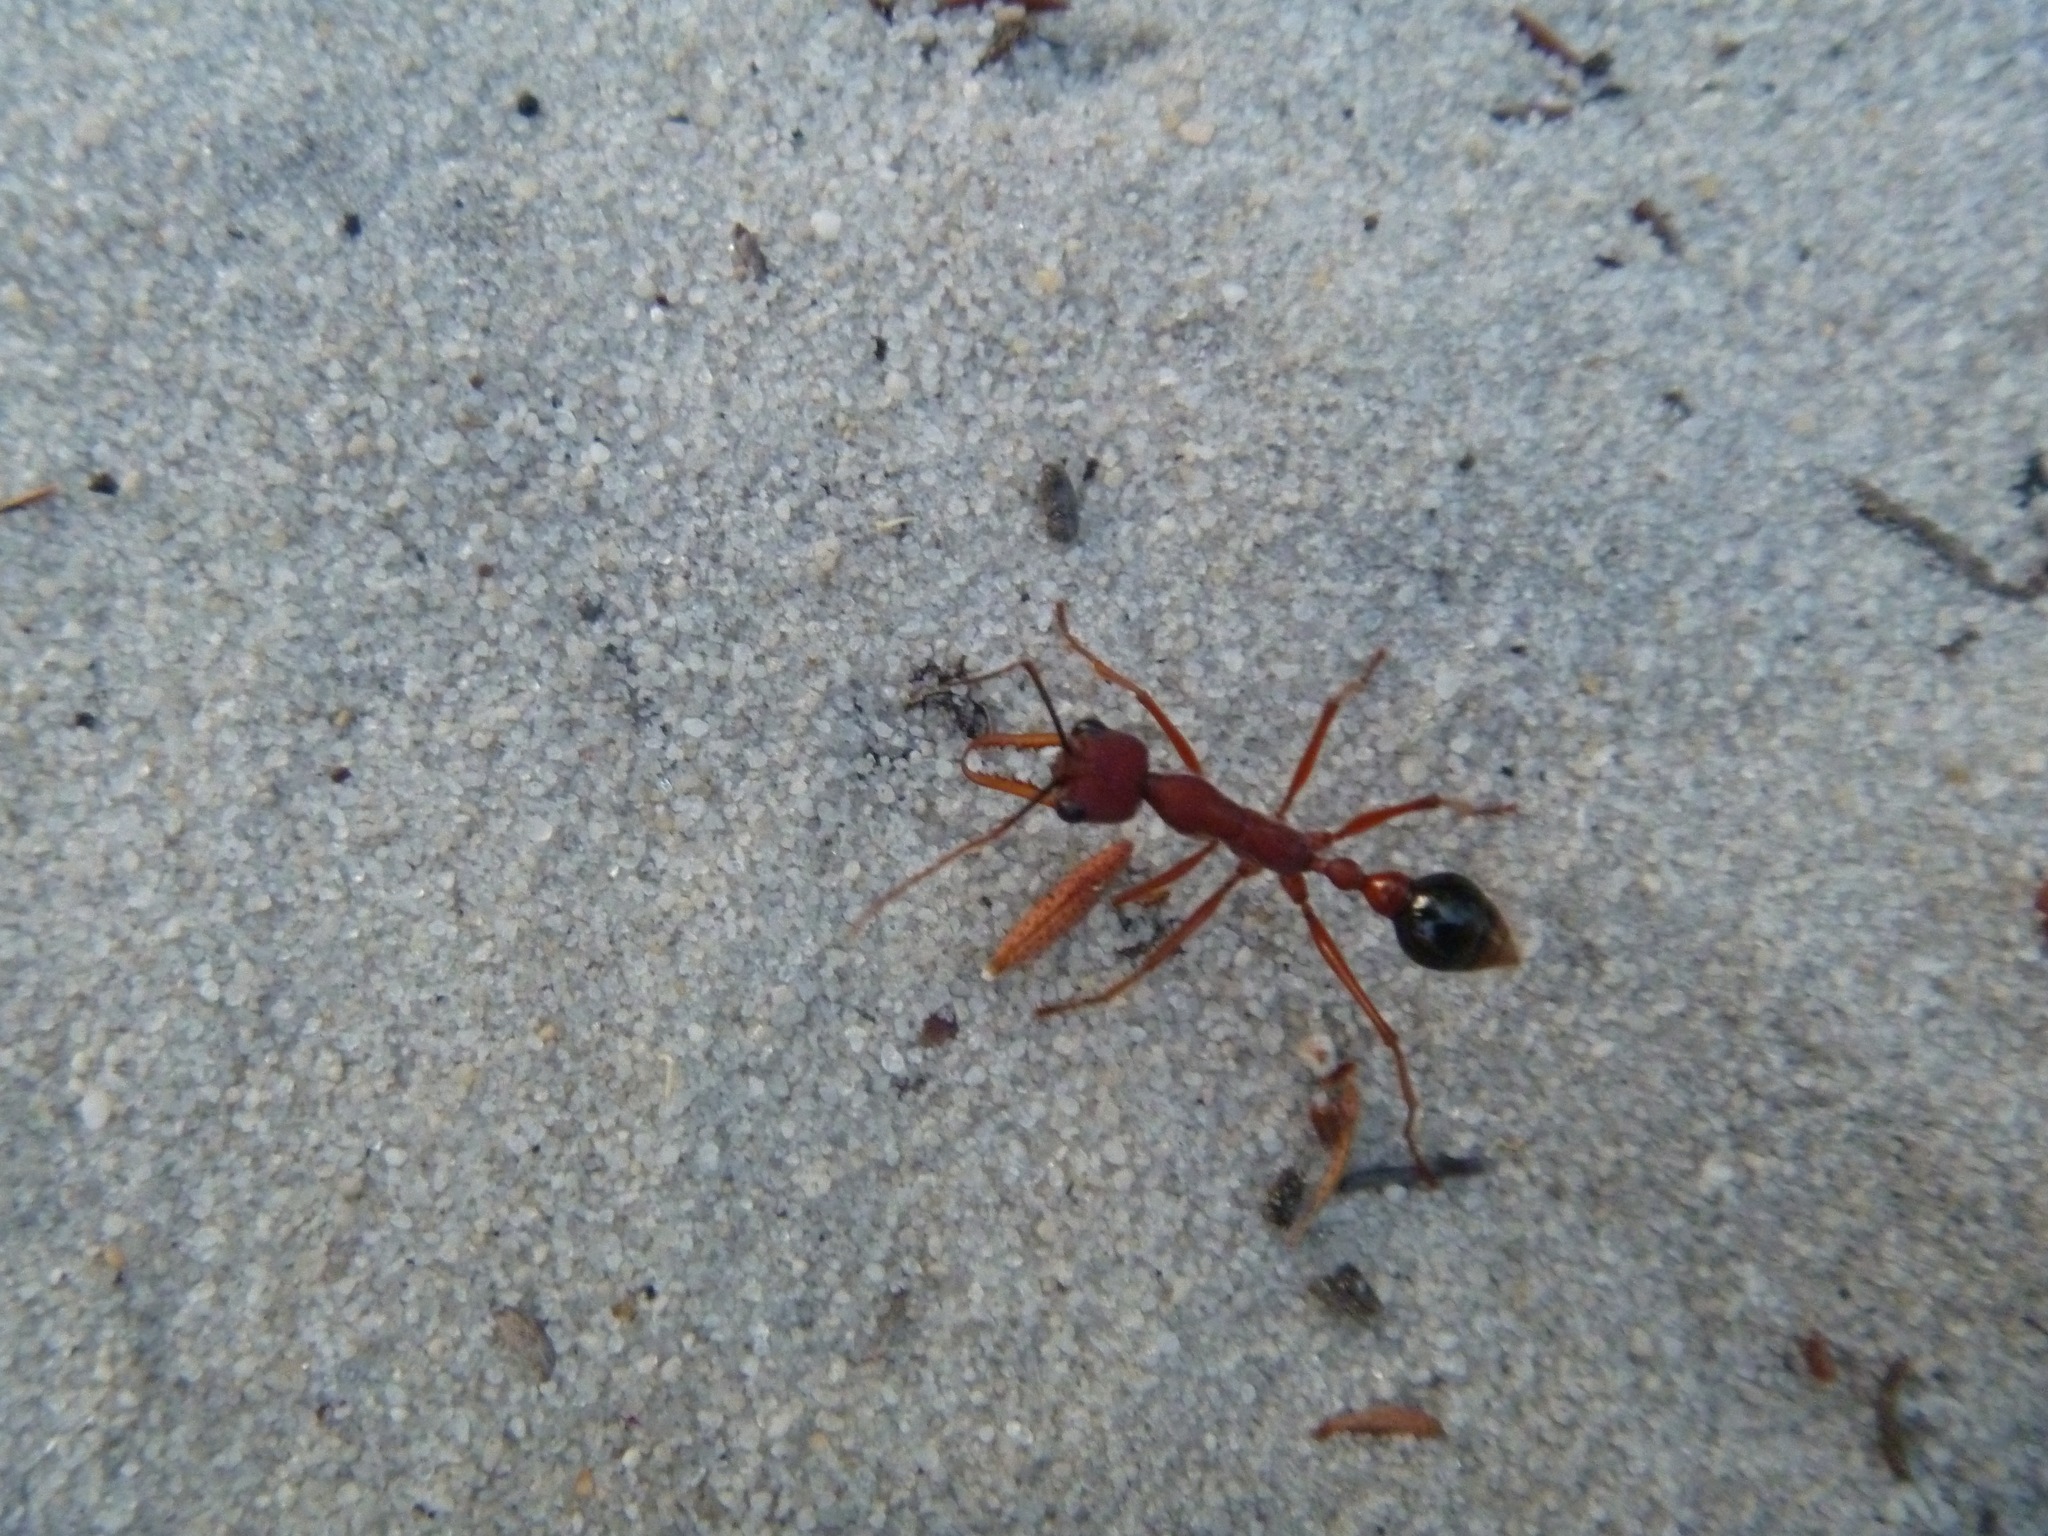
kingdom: Animalia
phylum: Arthropoda
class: Insecta
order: Hymenoptera
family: Formicidae
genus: Myrmecia
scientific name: Myrmecia analis
